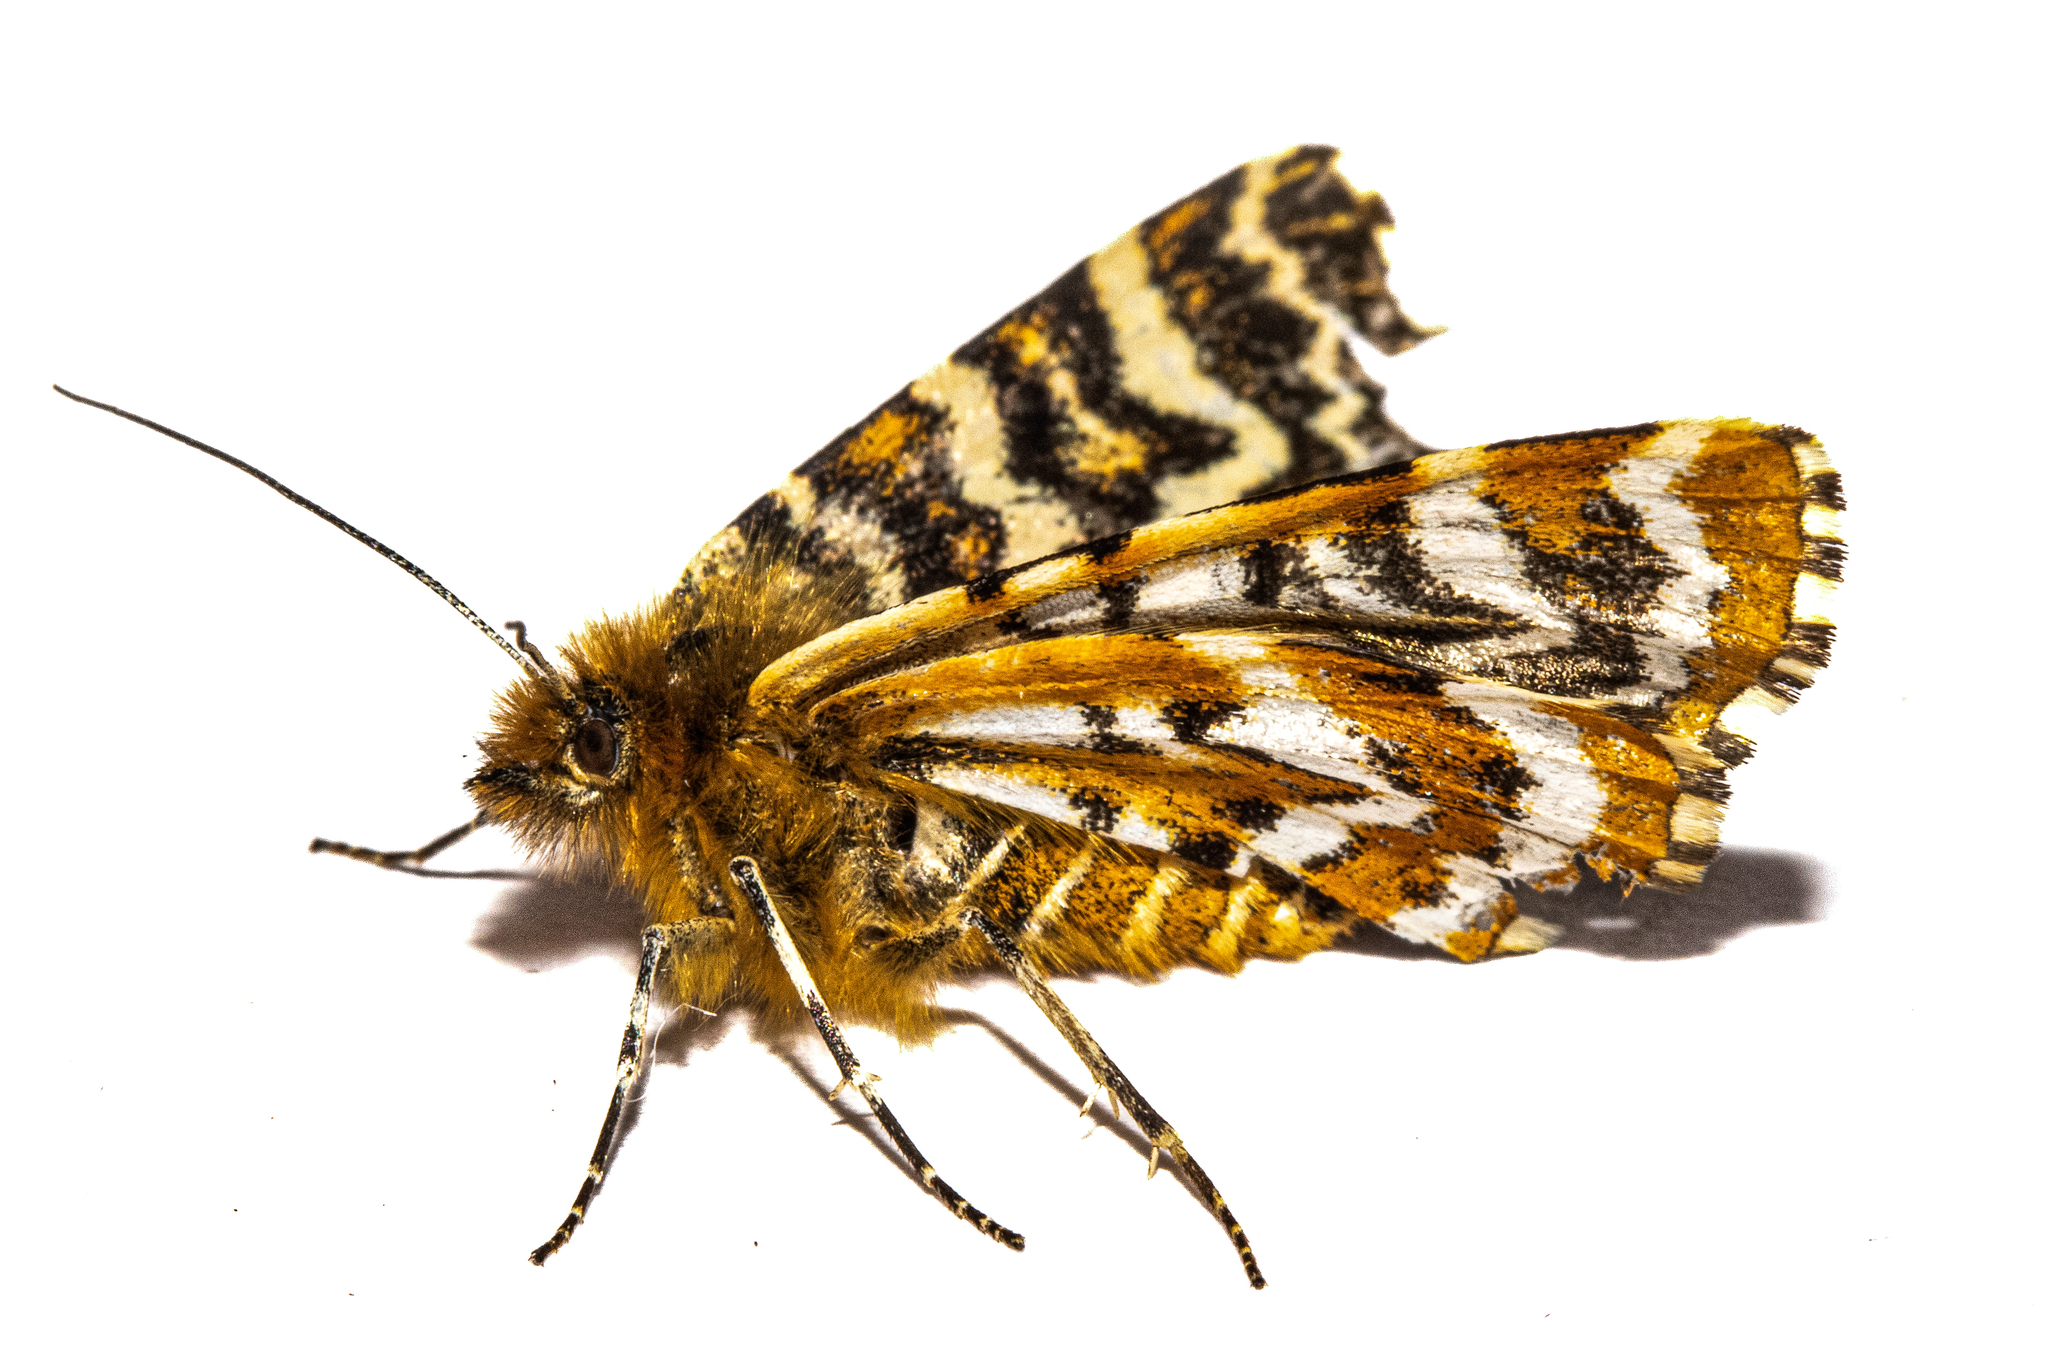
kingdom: Animalia
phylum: Arthropoda
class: Insecta
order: Lepidoptera
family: Geometridae
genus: Dasyuris
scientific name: Dasyuris callicrena
